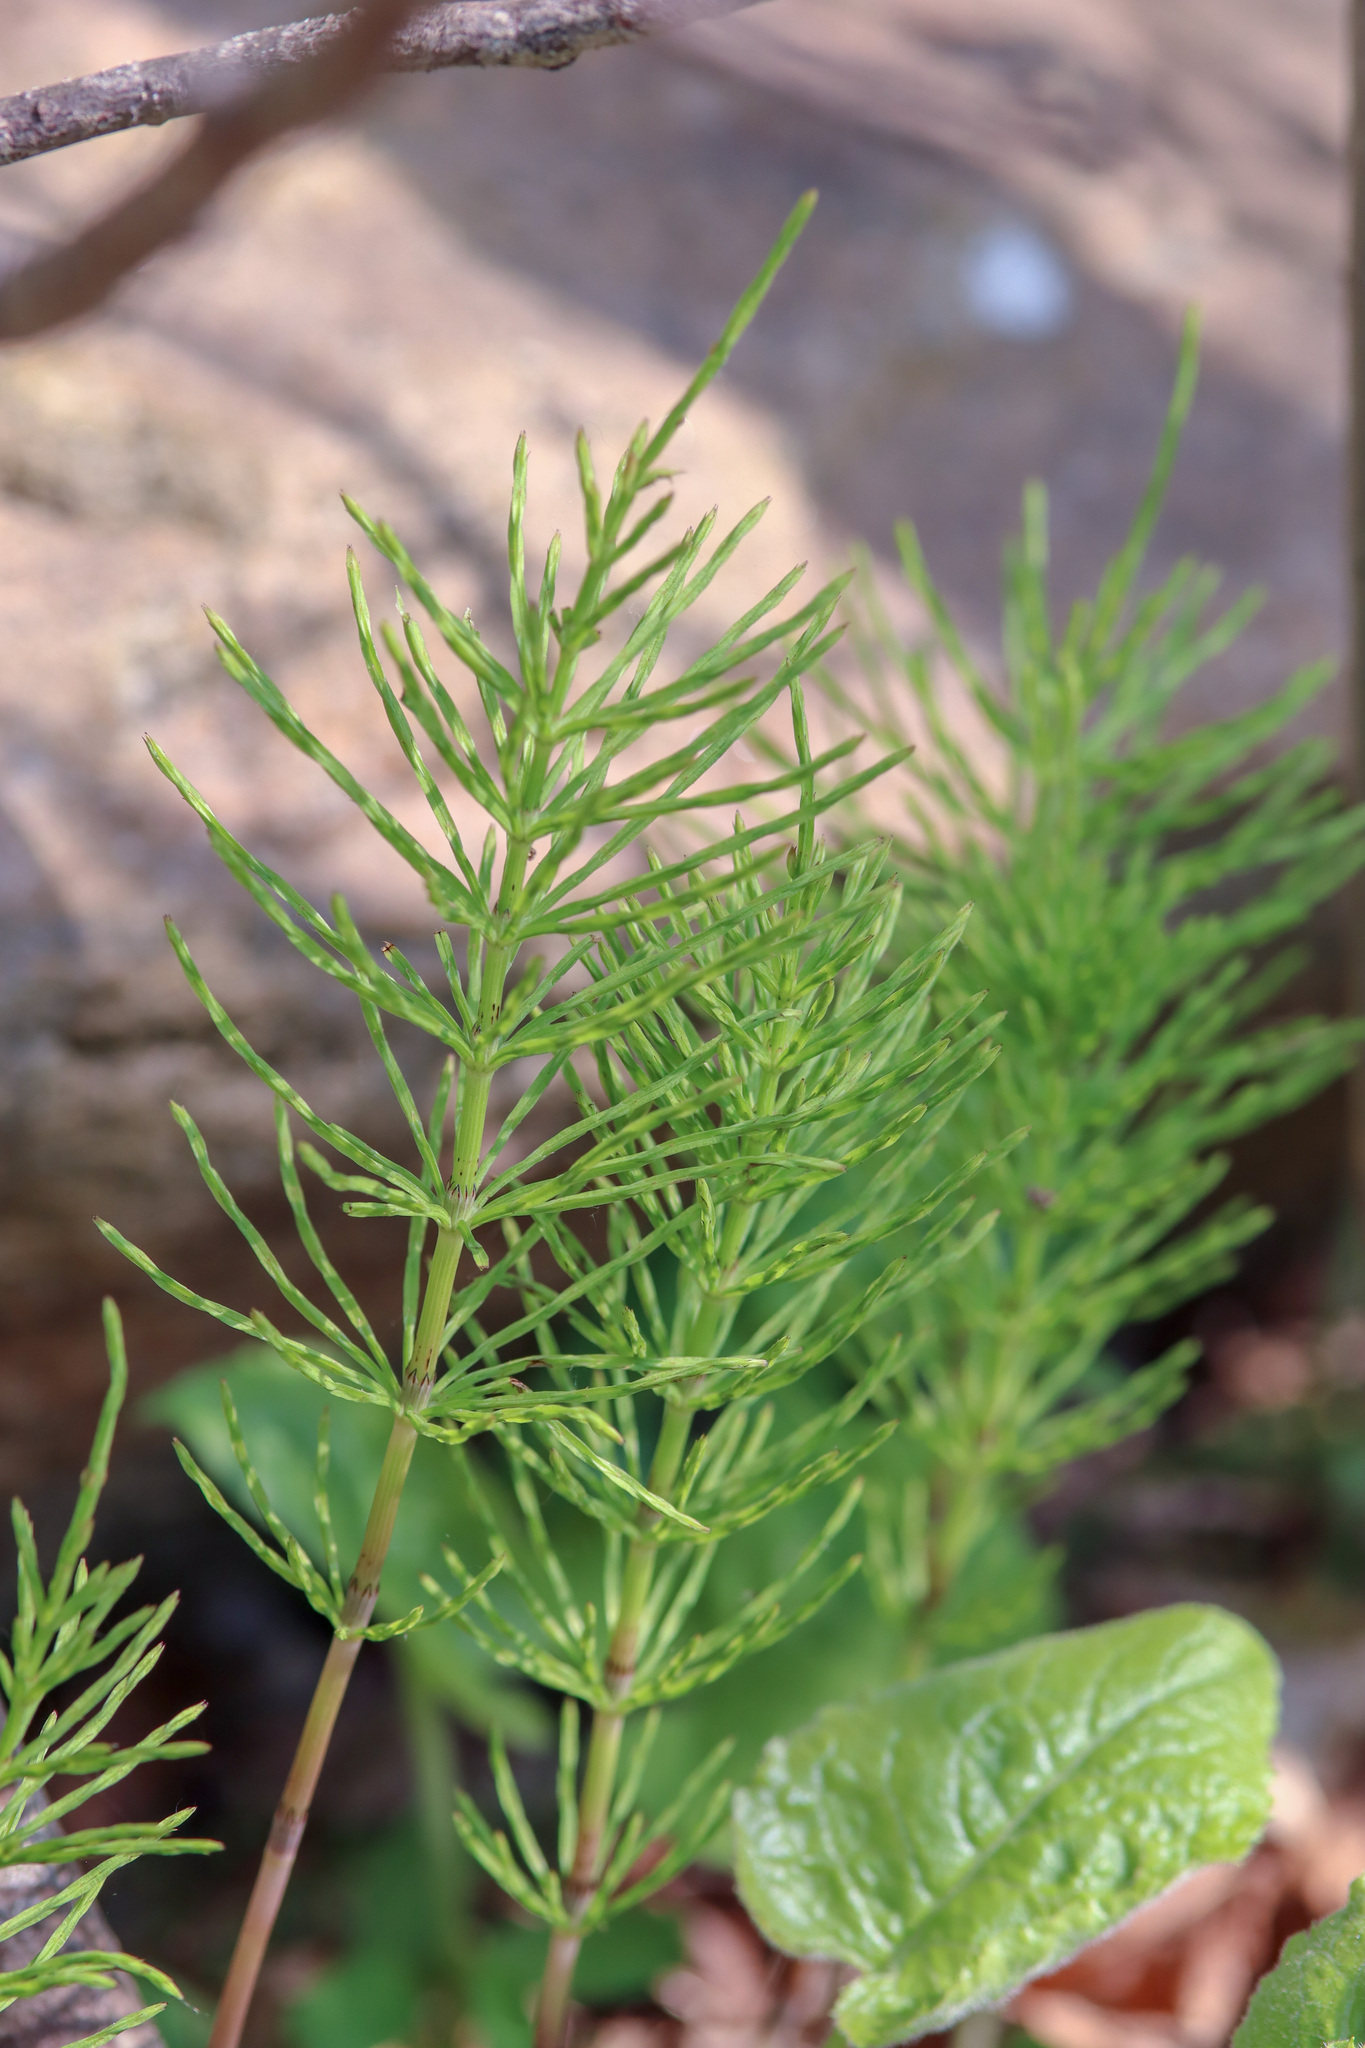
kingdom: Plantae
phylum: Tracheophyta
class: Polypodiopsida
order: Equisetales
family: Equisetaceae
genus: Equisetum
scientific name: Equisetum arvense
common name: Field horsetail
